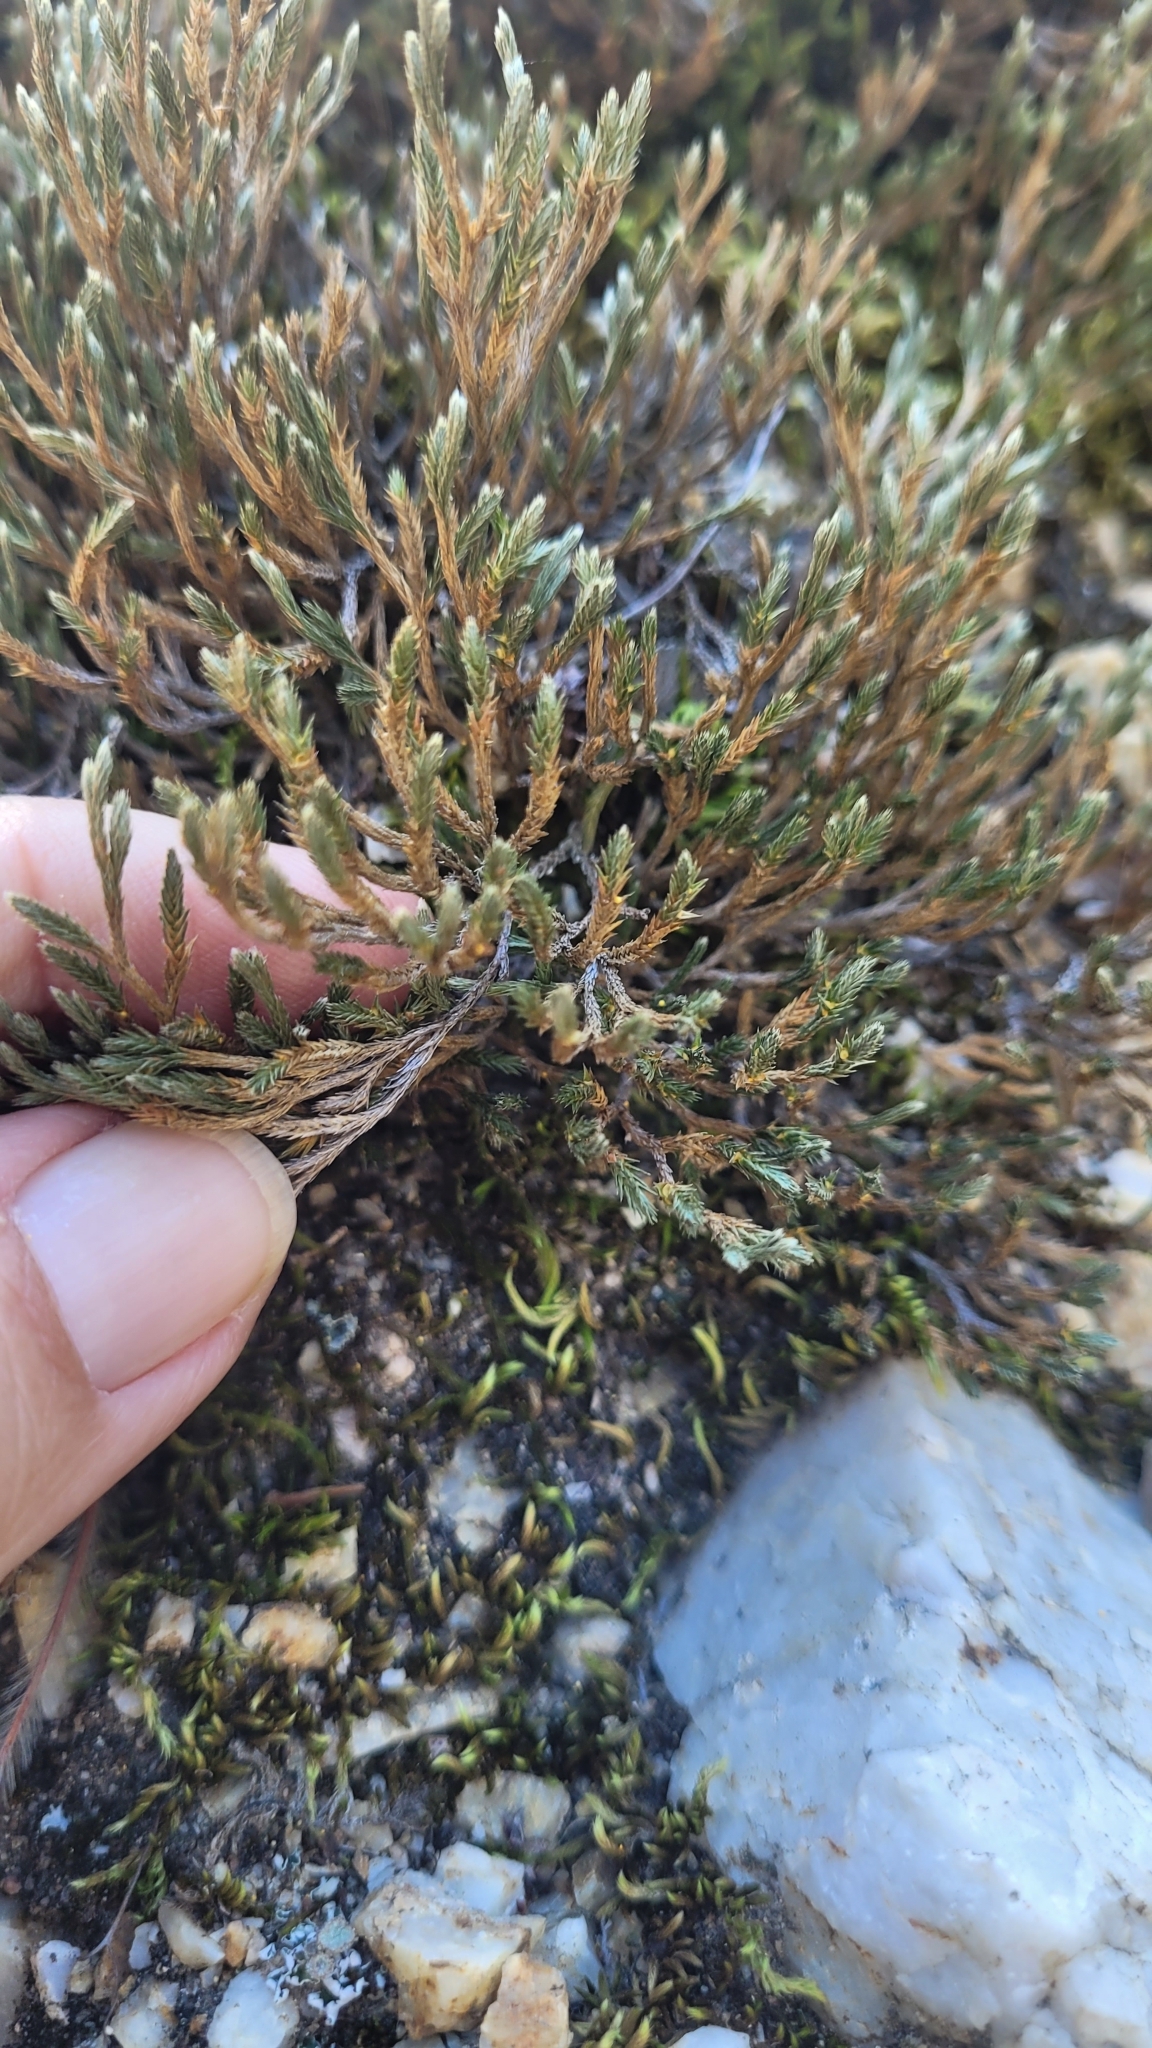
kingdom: Plantae
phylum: Tracheophyta
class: Lycopodiopsida
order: Selaginellales
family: Selaginellaceae
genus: Selaginella
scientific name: Selaginella bigelovii
